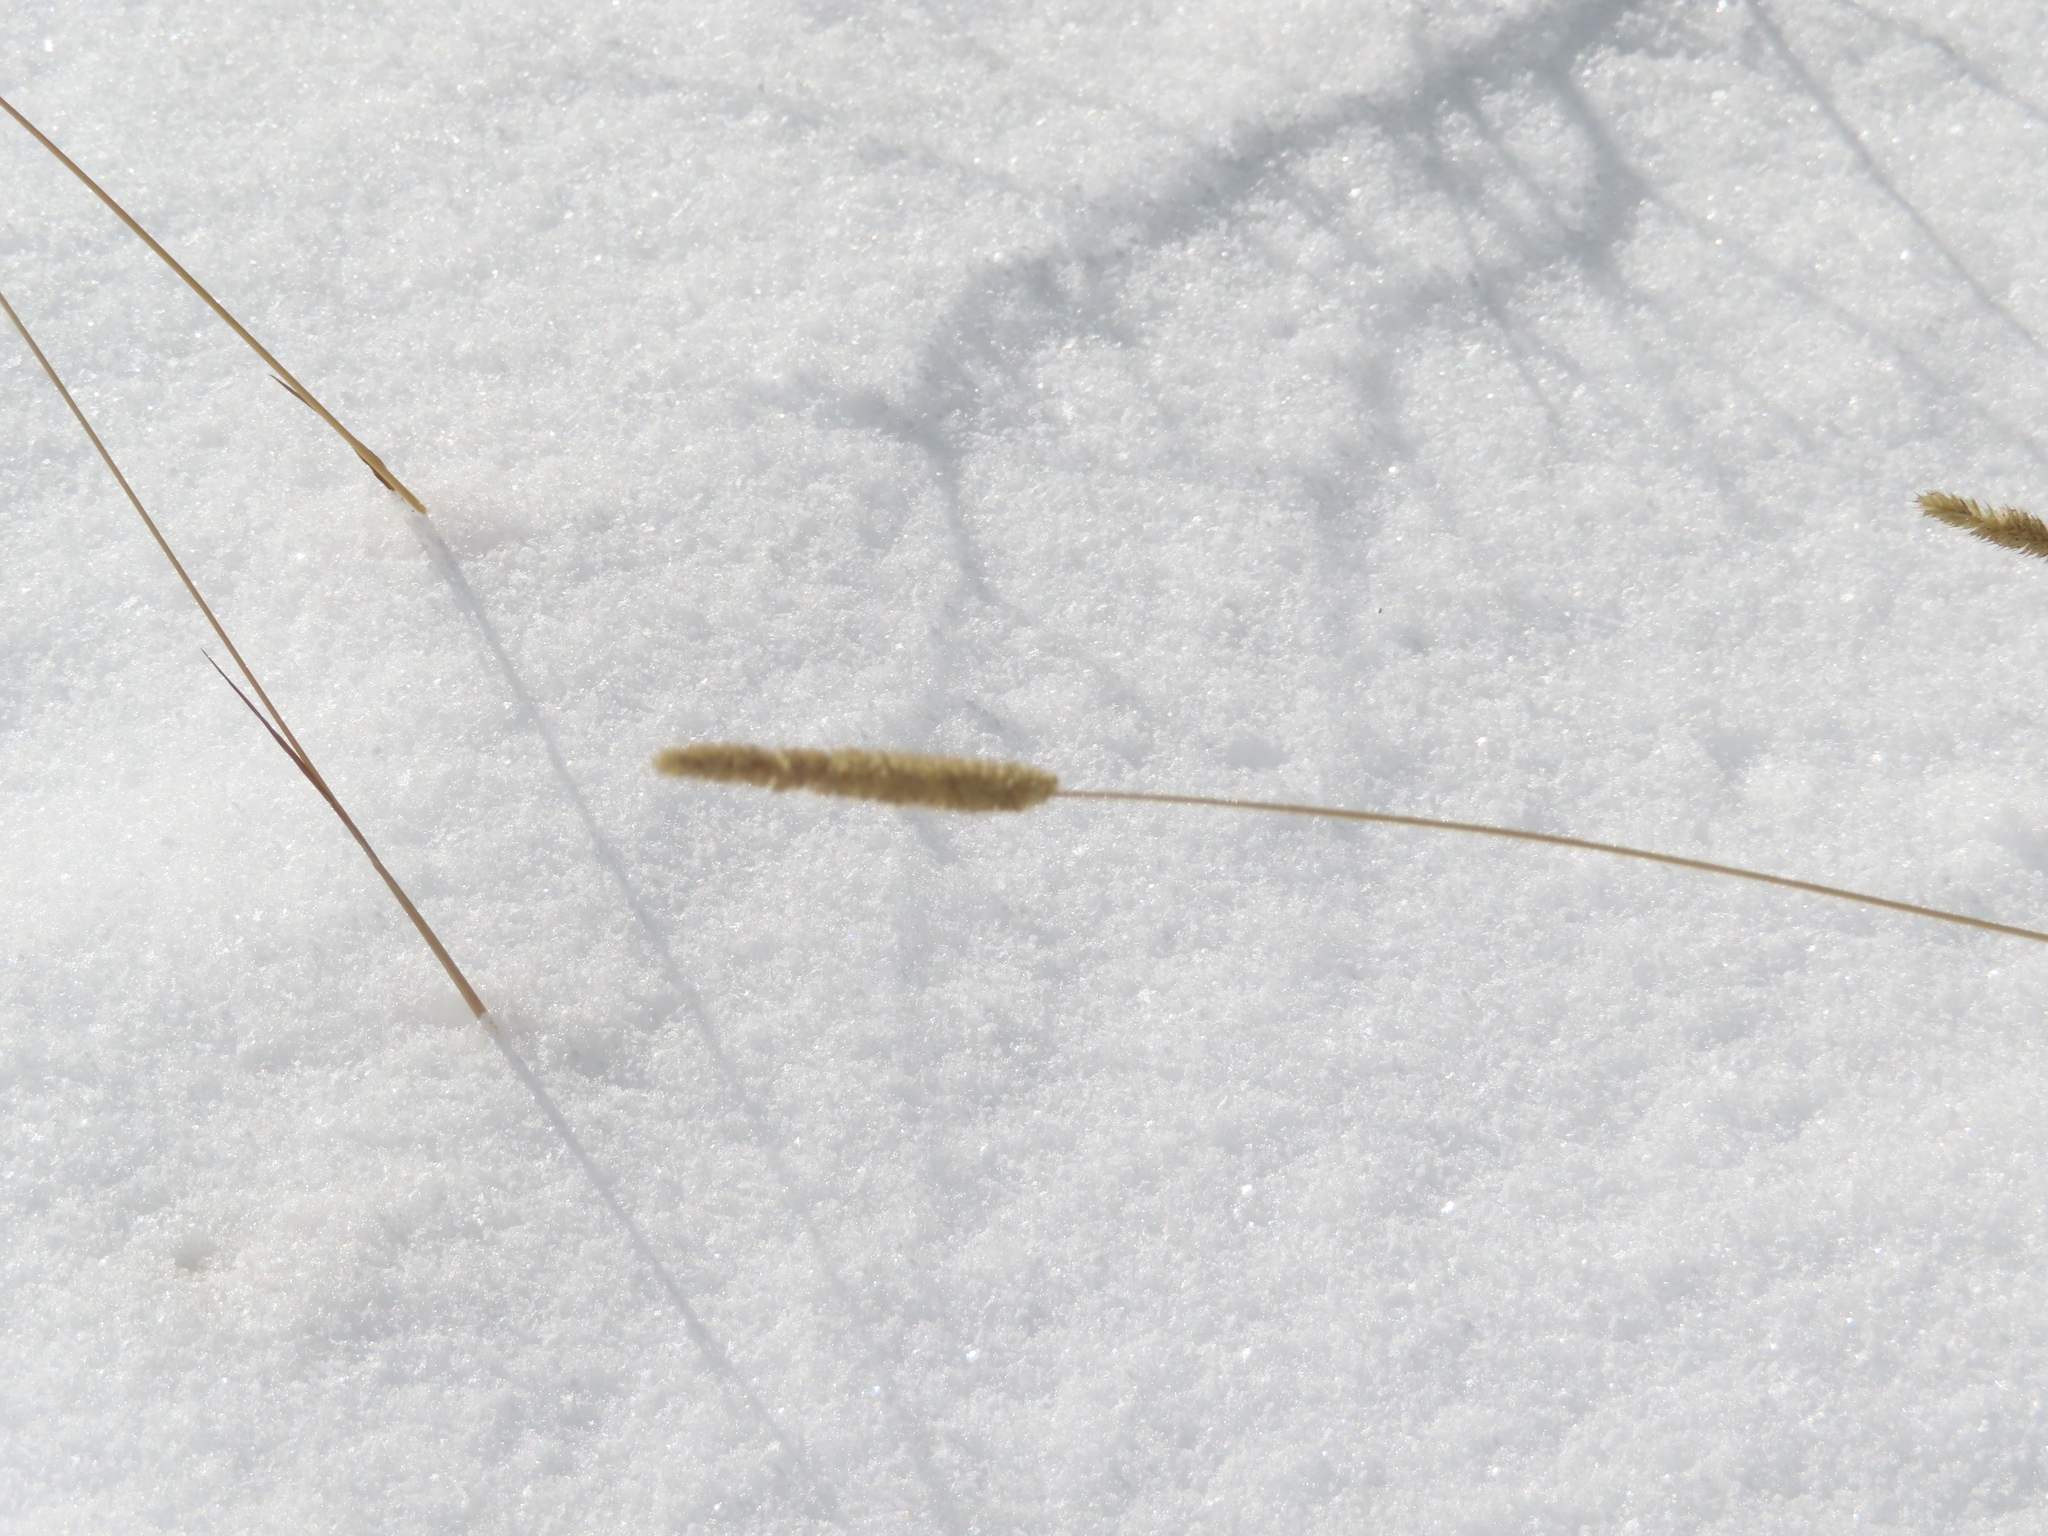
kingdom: Plantae
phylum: Tracheophyta
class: Liliopsida
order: Poales
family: Poaceae
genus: Phleum
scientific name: Phleum pratense
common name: Timothy grass
